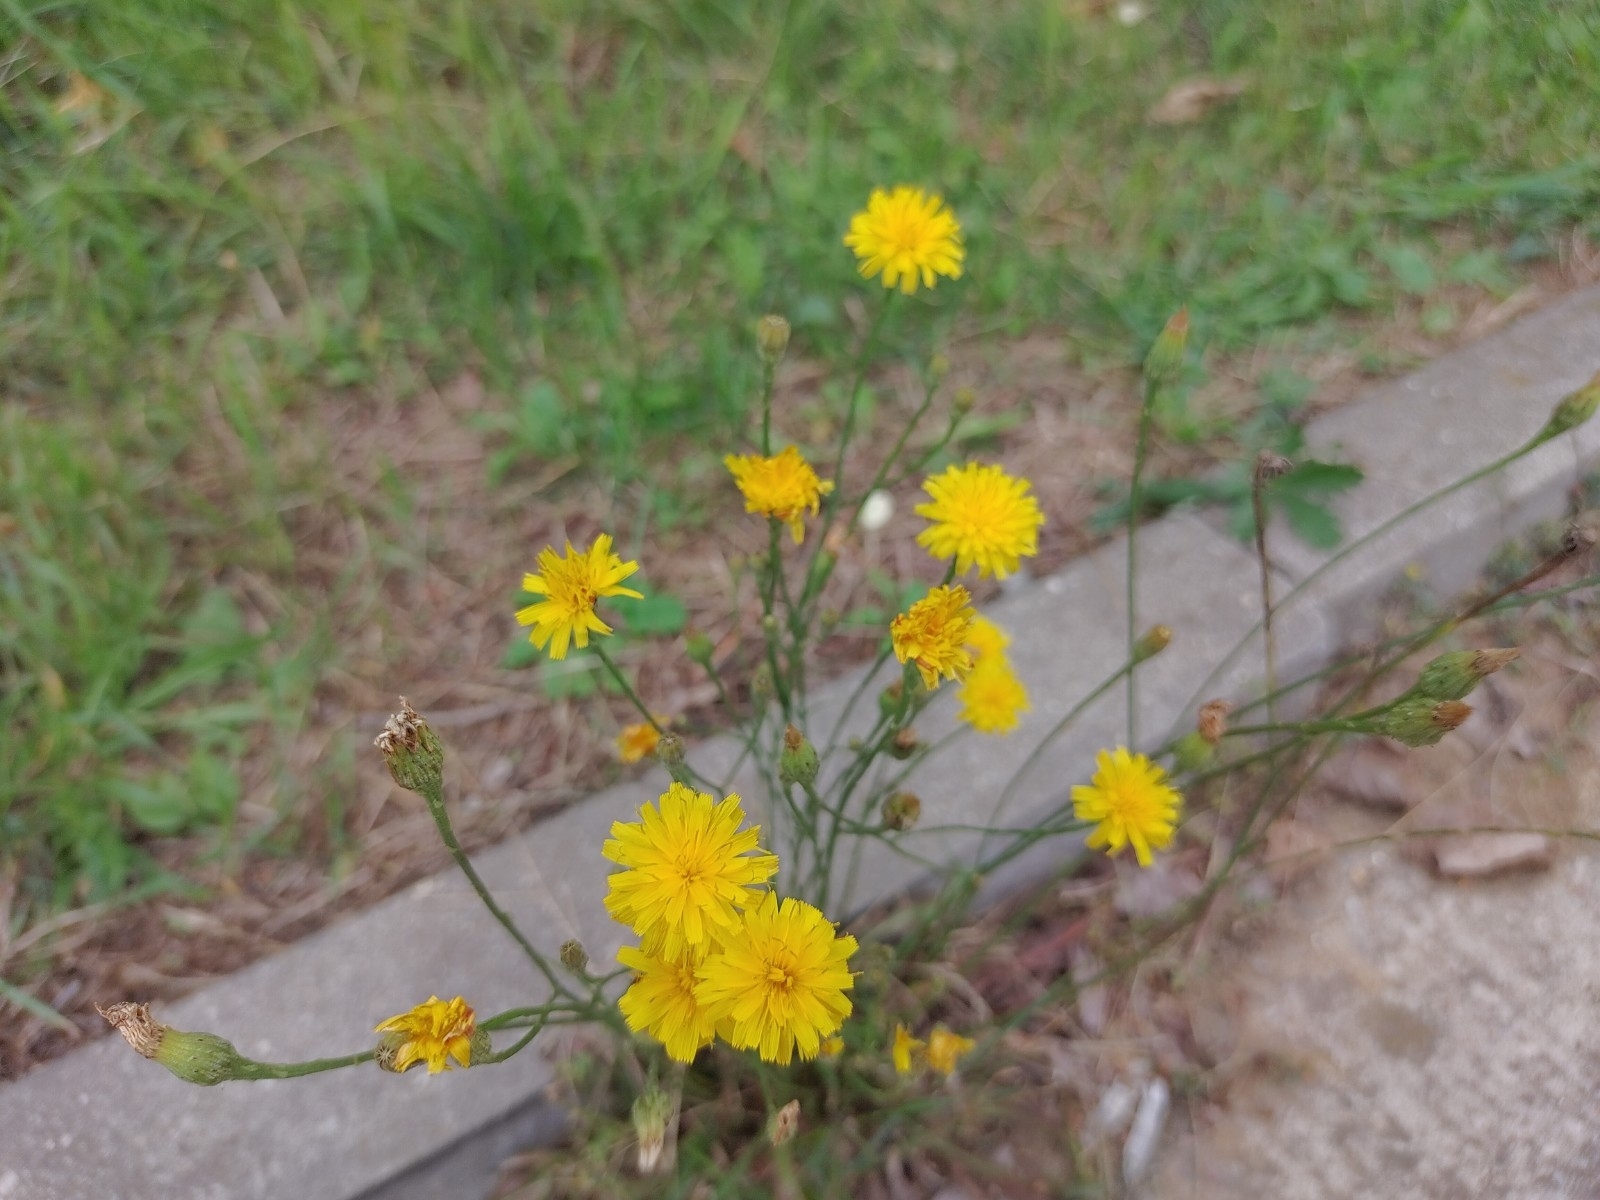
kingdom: Plantae
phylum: Tracheophyta
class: Magnoliopsida
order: Asterales
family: Asteraceae
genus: Scorzoneroides
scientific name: Scorzoneroides autumnalis
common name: Autumn hawkbit
